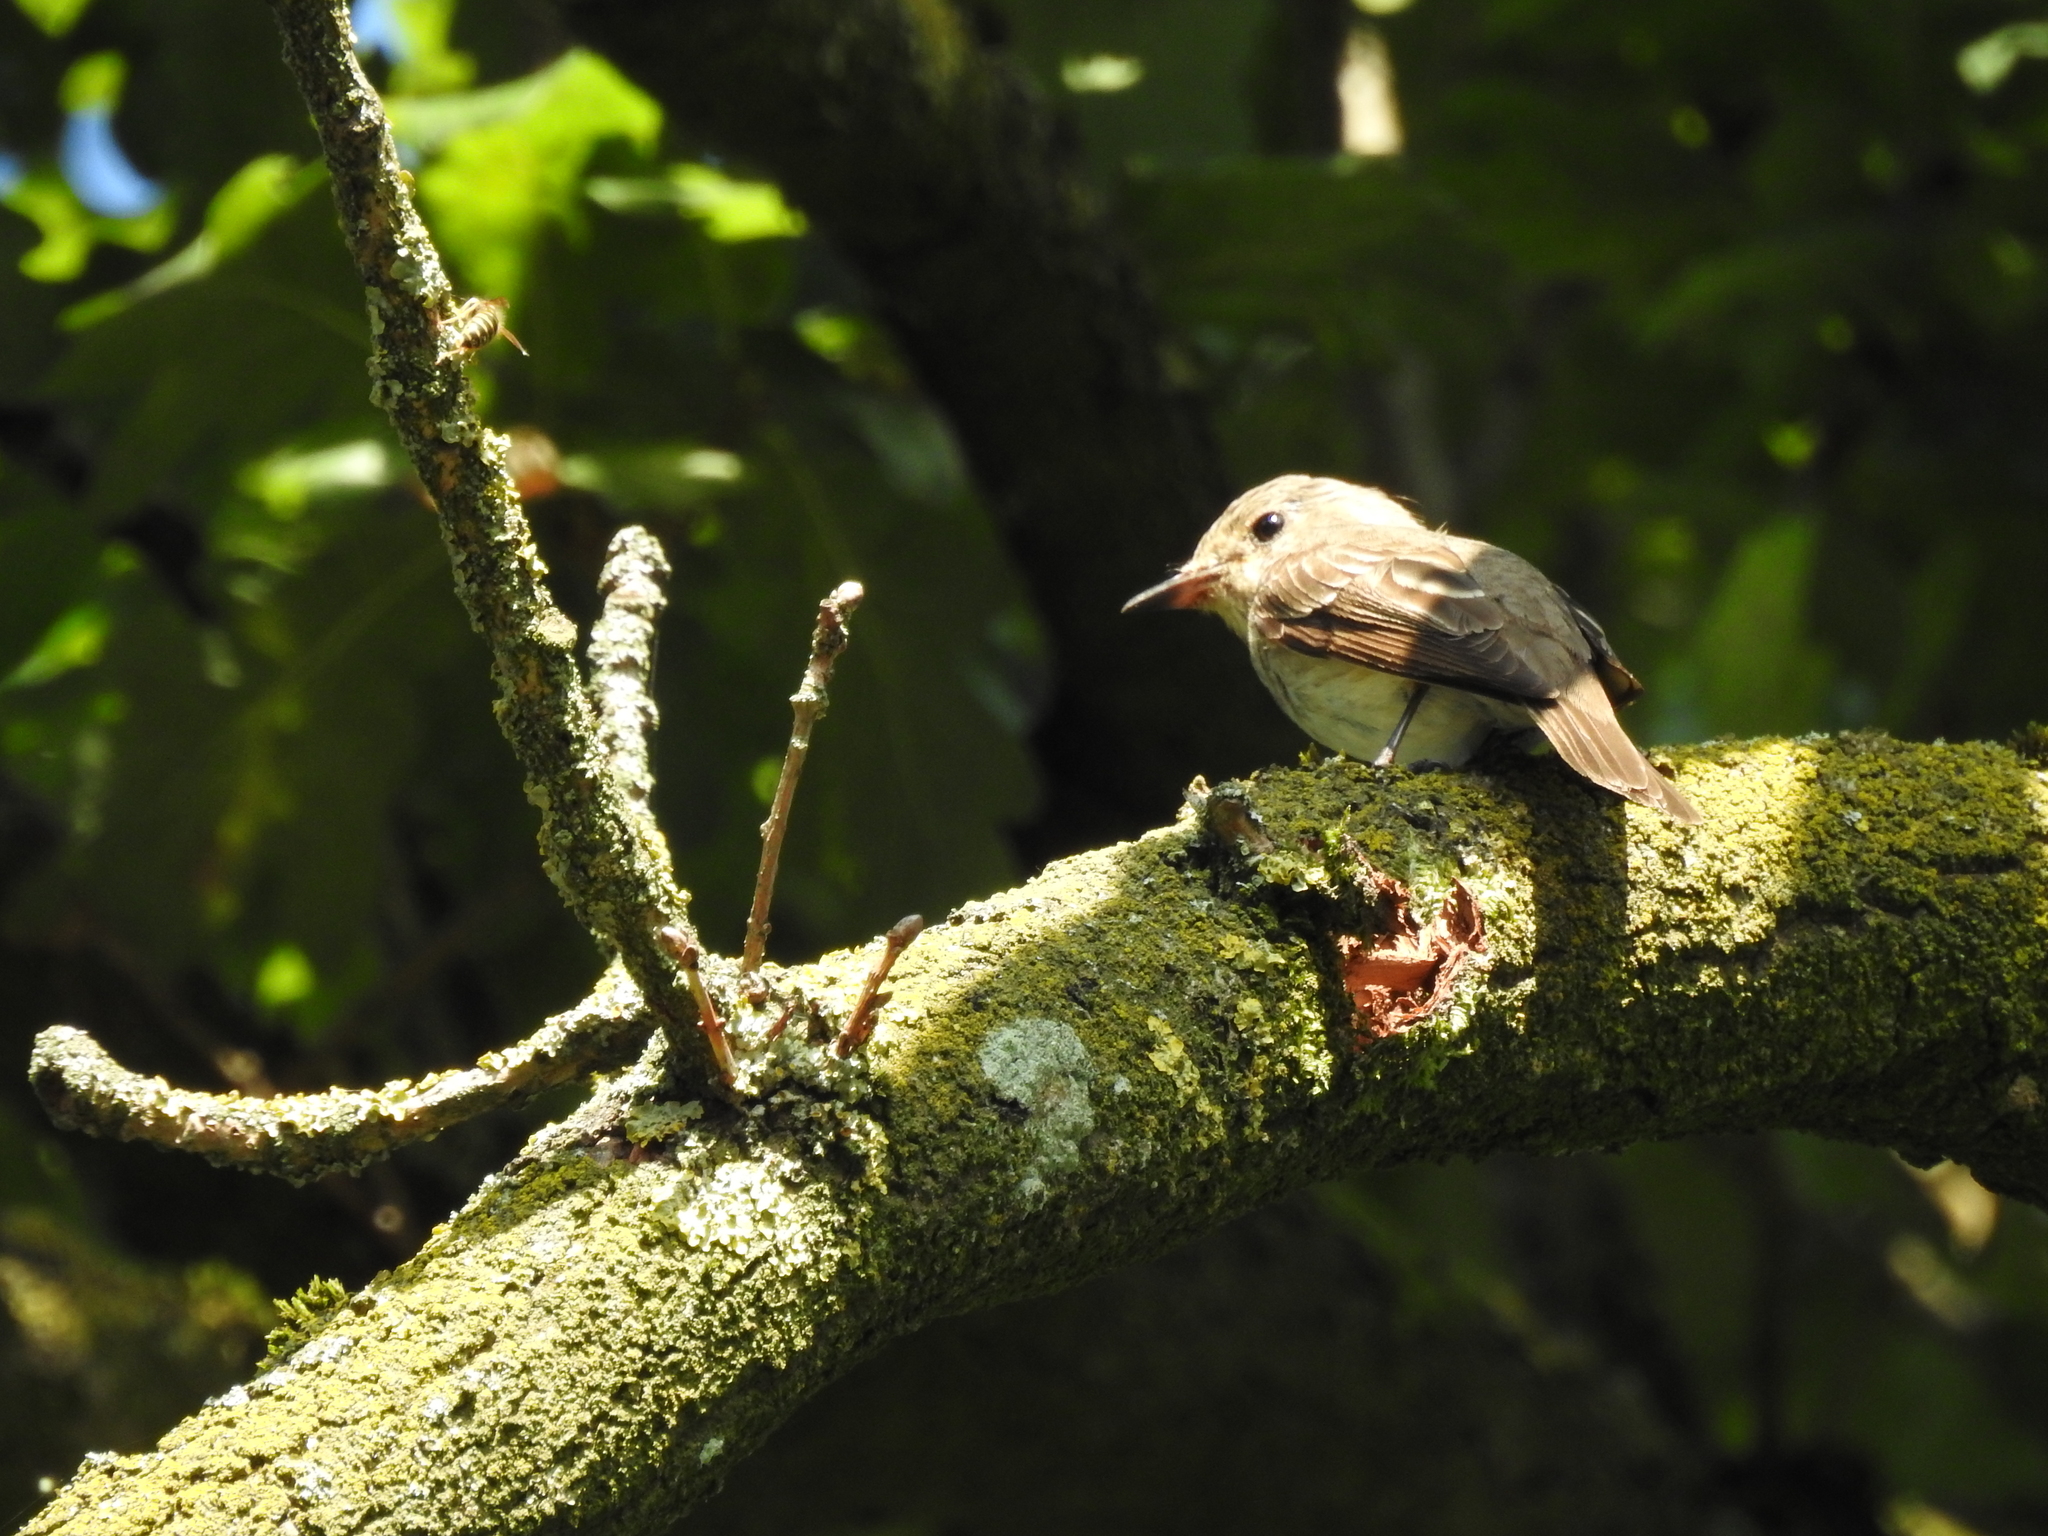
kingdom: Animalia
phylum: Chordata
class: Aves
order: Passeriformes
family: Muscicapidae
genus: Muscicapa
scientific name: Muscicapa striata
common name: Spotted flycatcher
